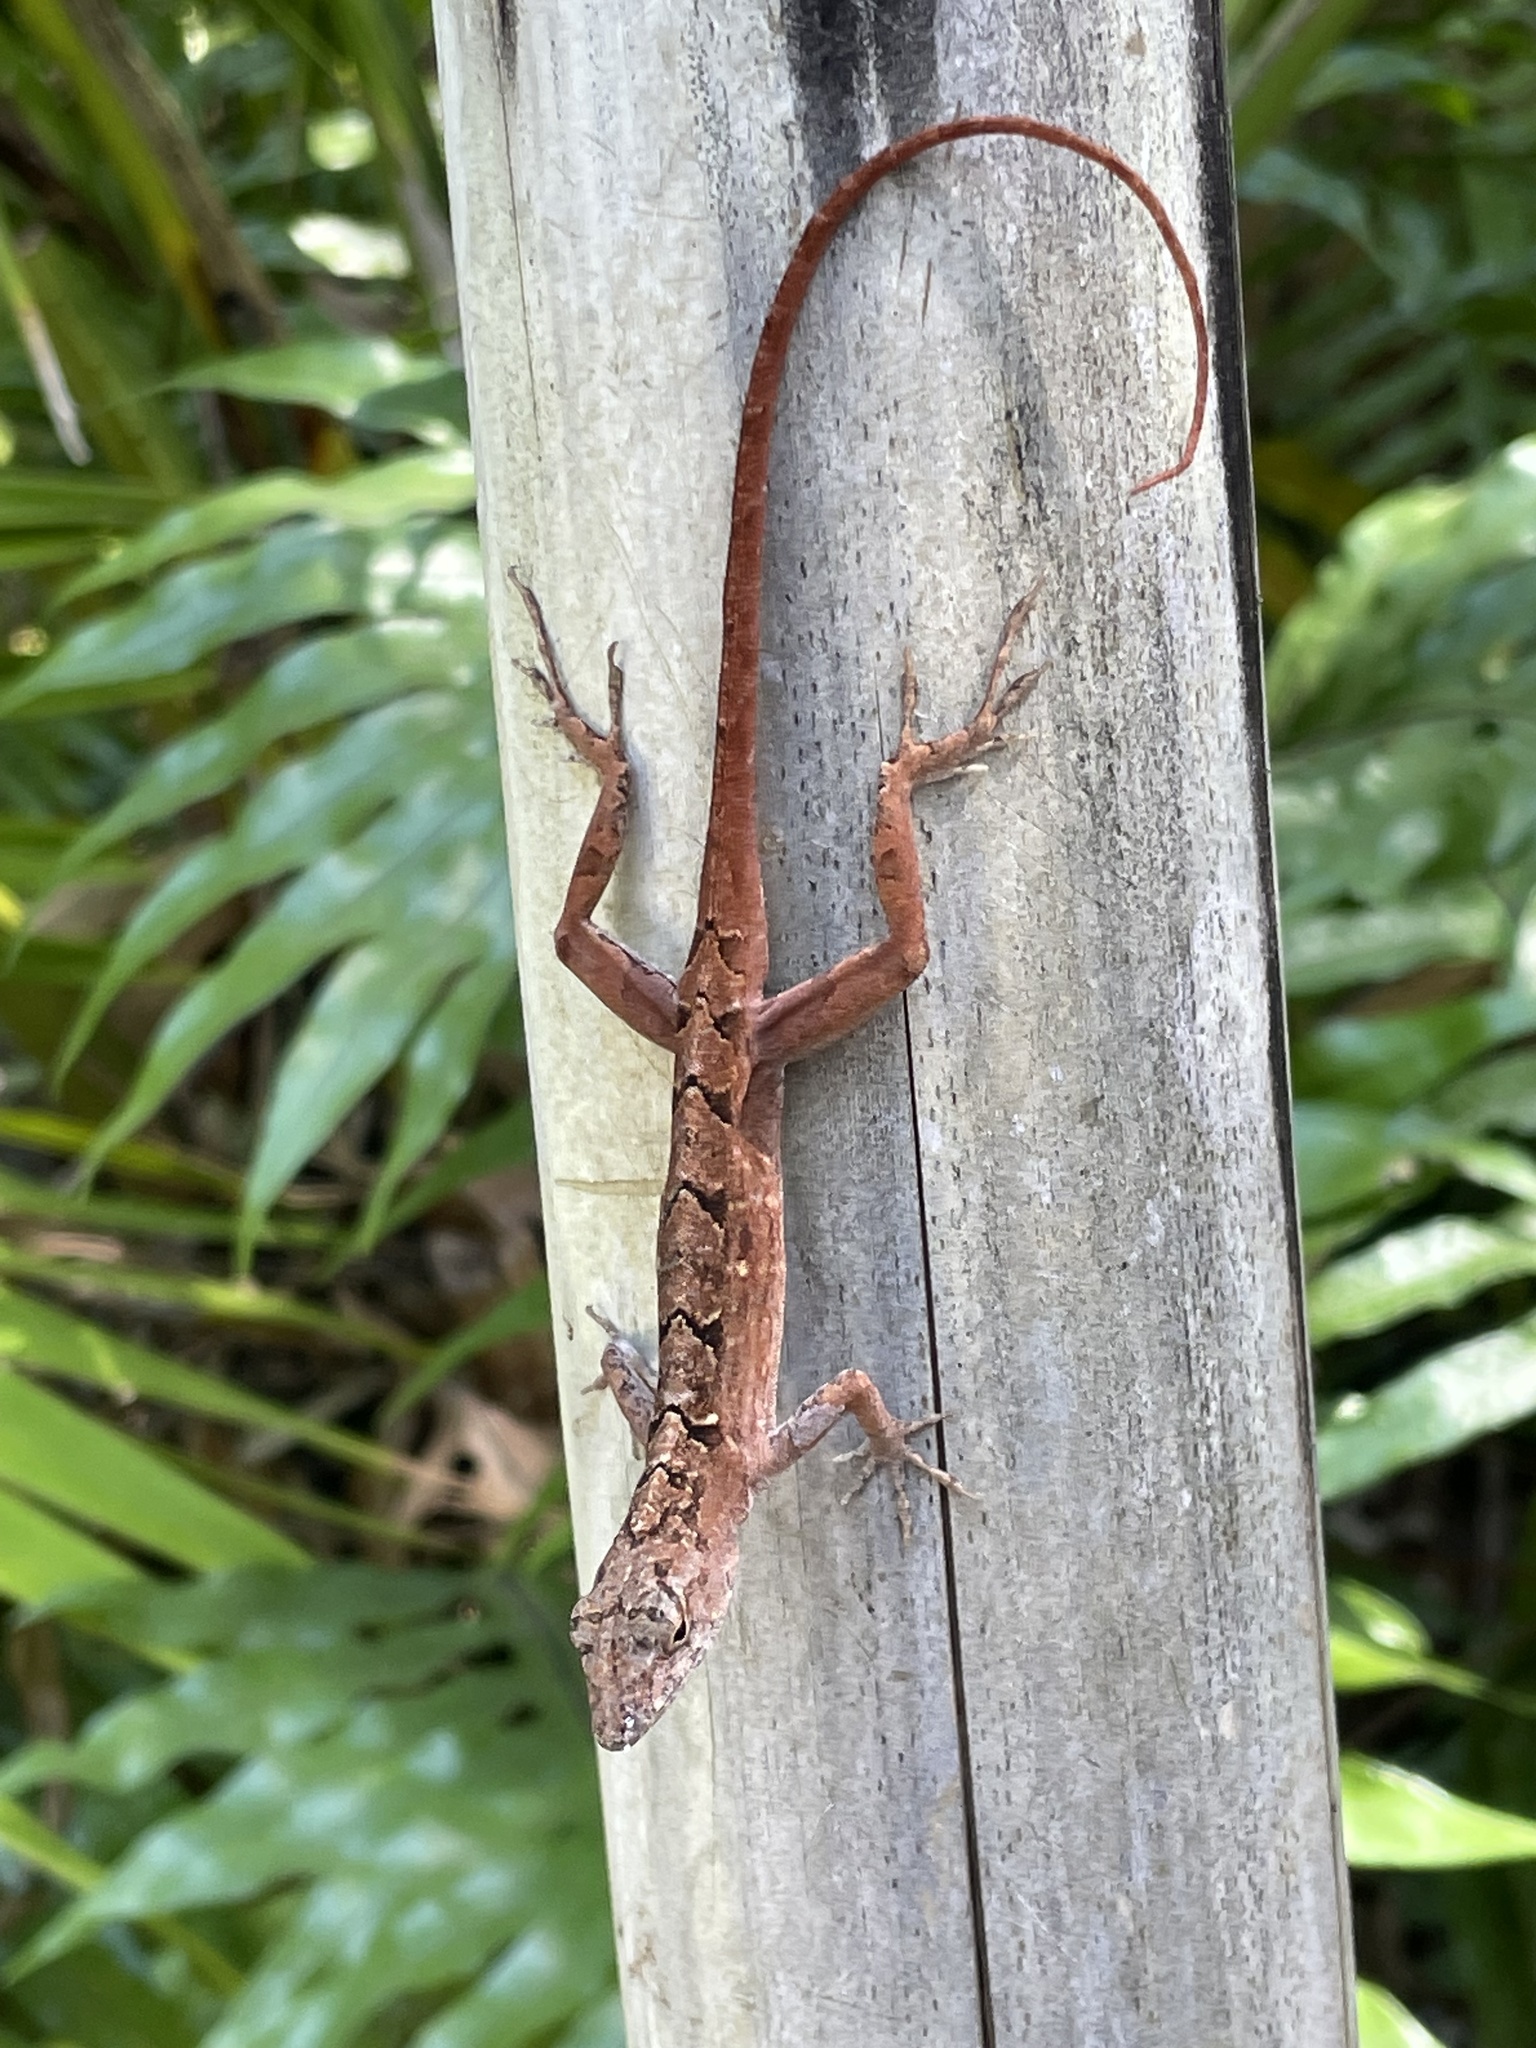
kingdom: Animalia
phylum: Chordata
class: Squamata
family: Dactyloidae
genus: Anolis
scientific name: Anolis sagrei
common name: Brown anole
